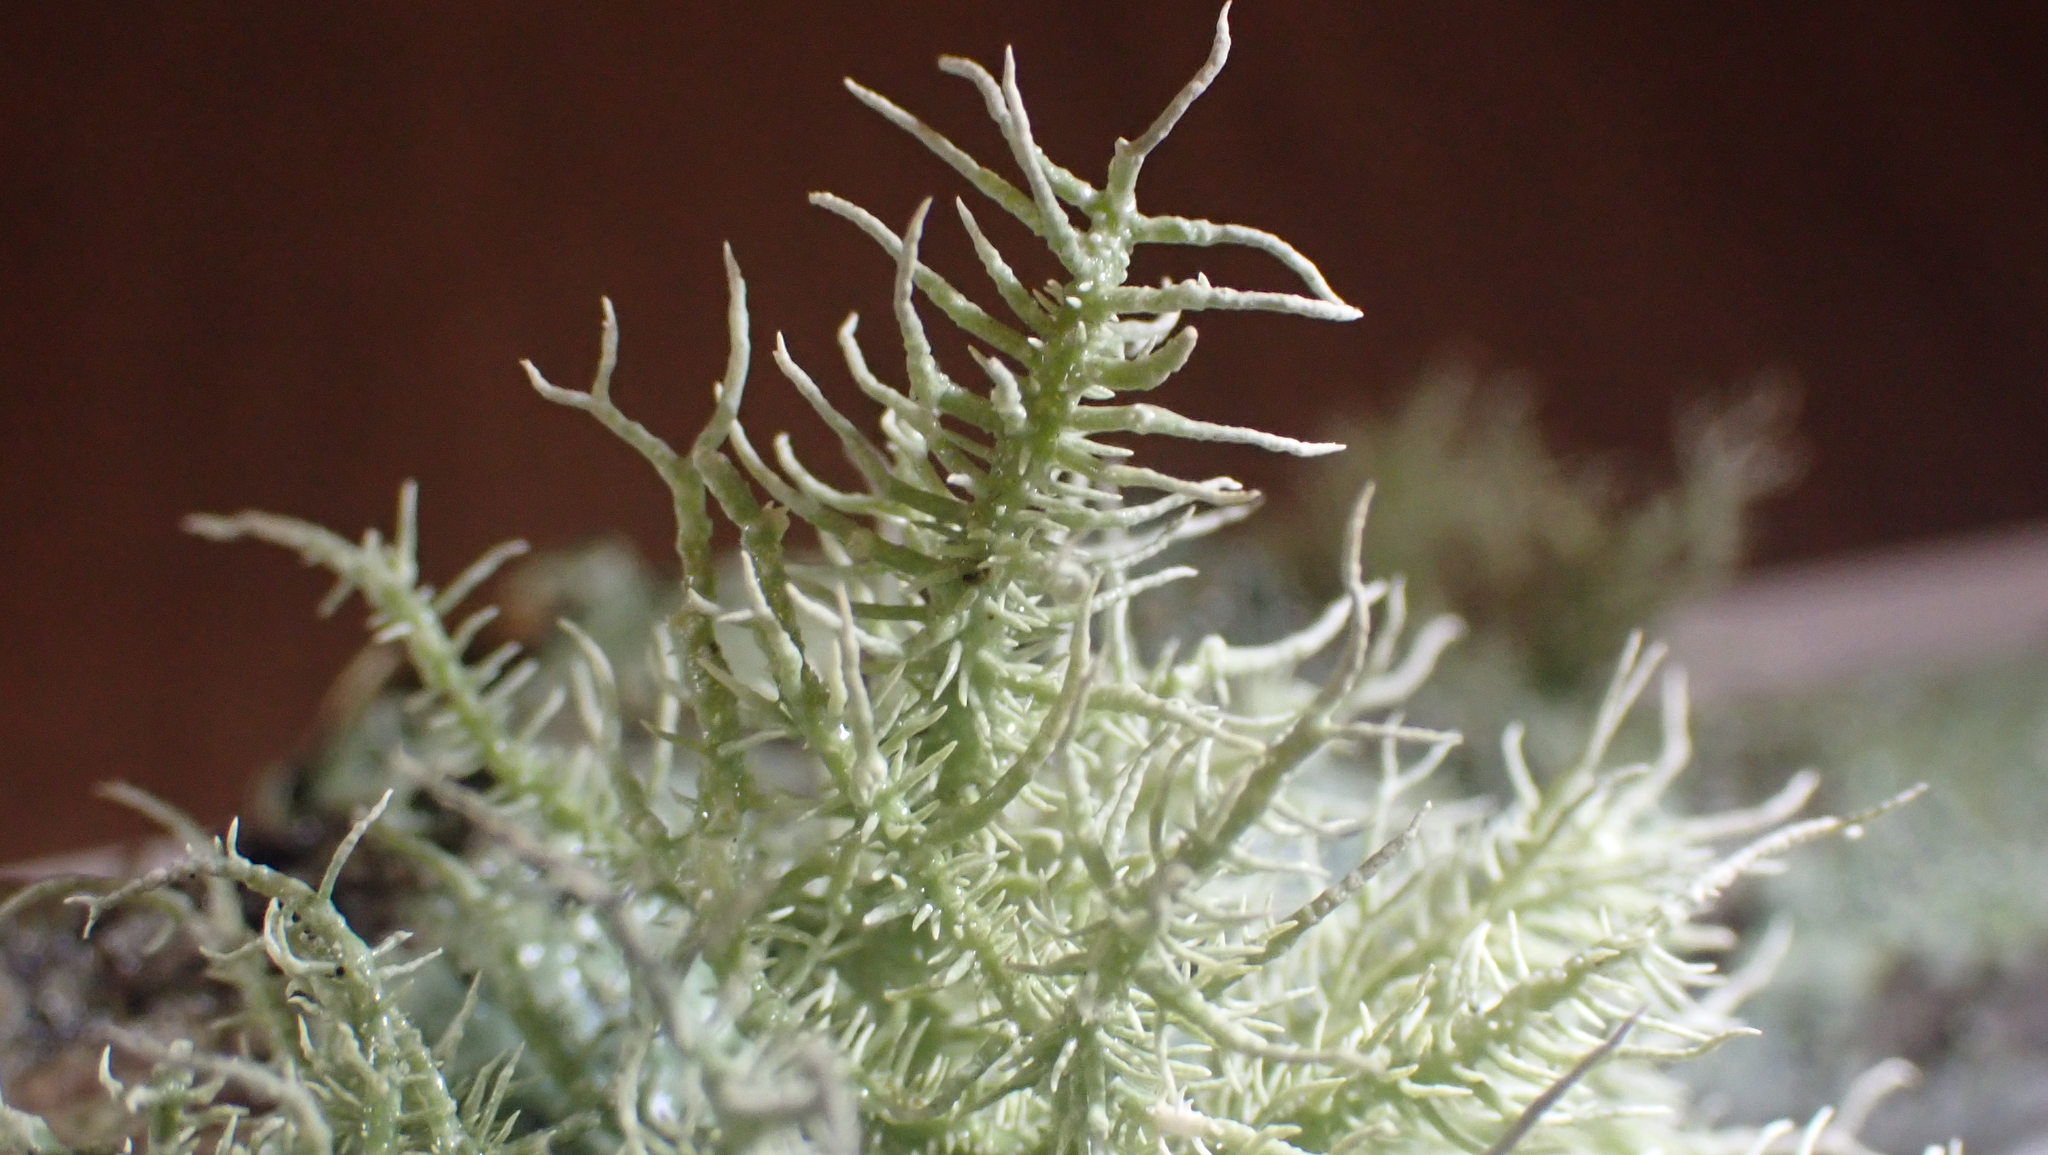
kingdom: Fungi
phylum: Ascomycota
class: Lecanoromycetes
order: Lecanorales
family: Parmeliaceae
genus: Usnea
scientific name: Usnea strigosa
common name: Bushy beard lichen
